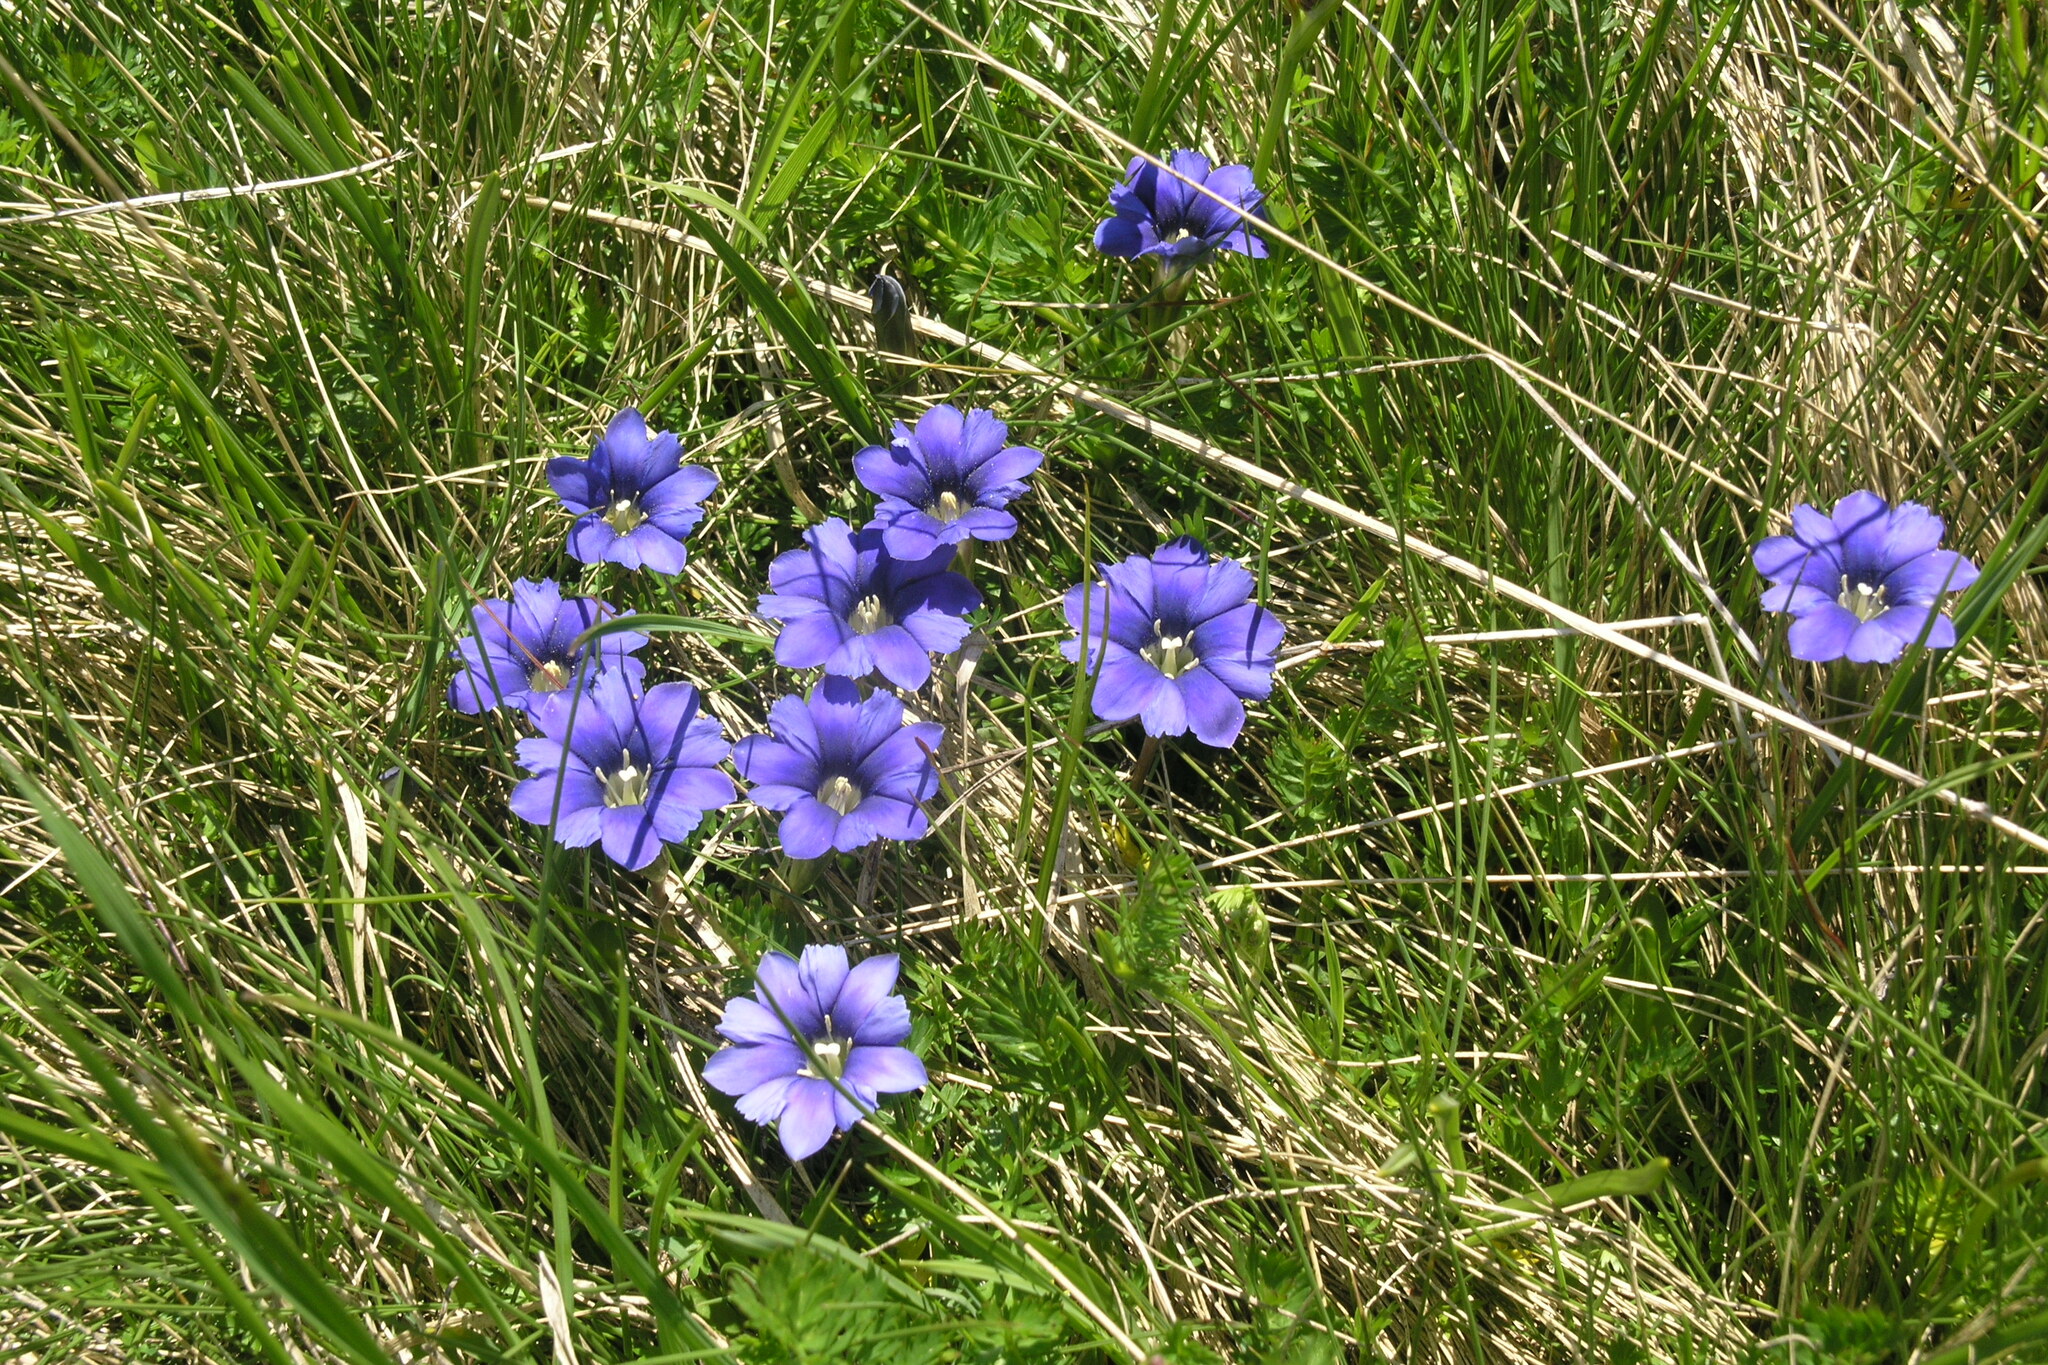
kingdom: Plantae
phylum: Tracheophyta
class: Magnoliopsida
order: Gentianales
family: Gentianaceae
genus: Gentiana
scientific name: Gentiana dshimilensis
